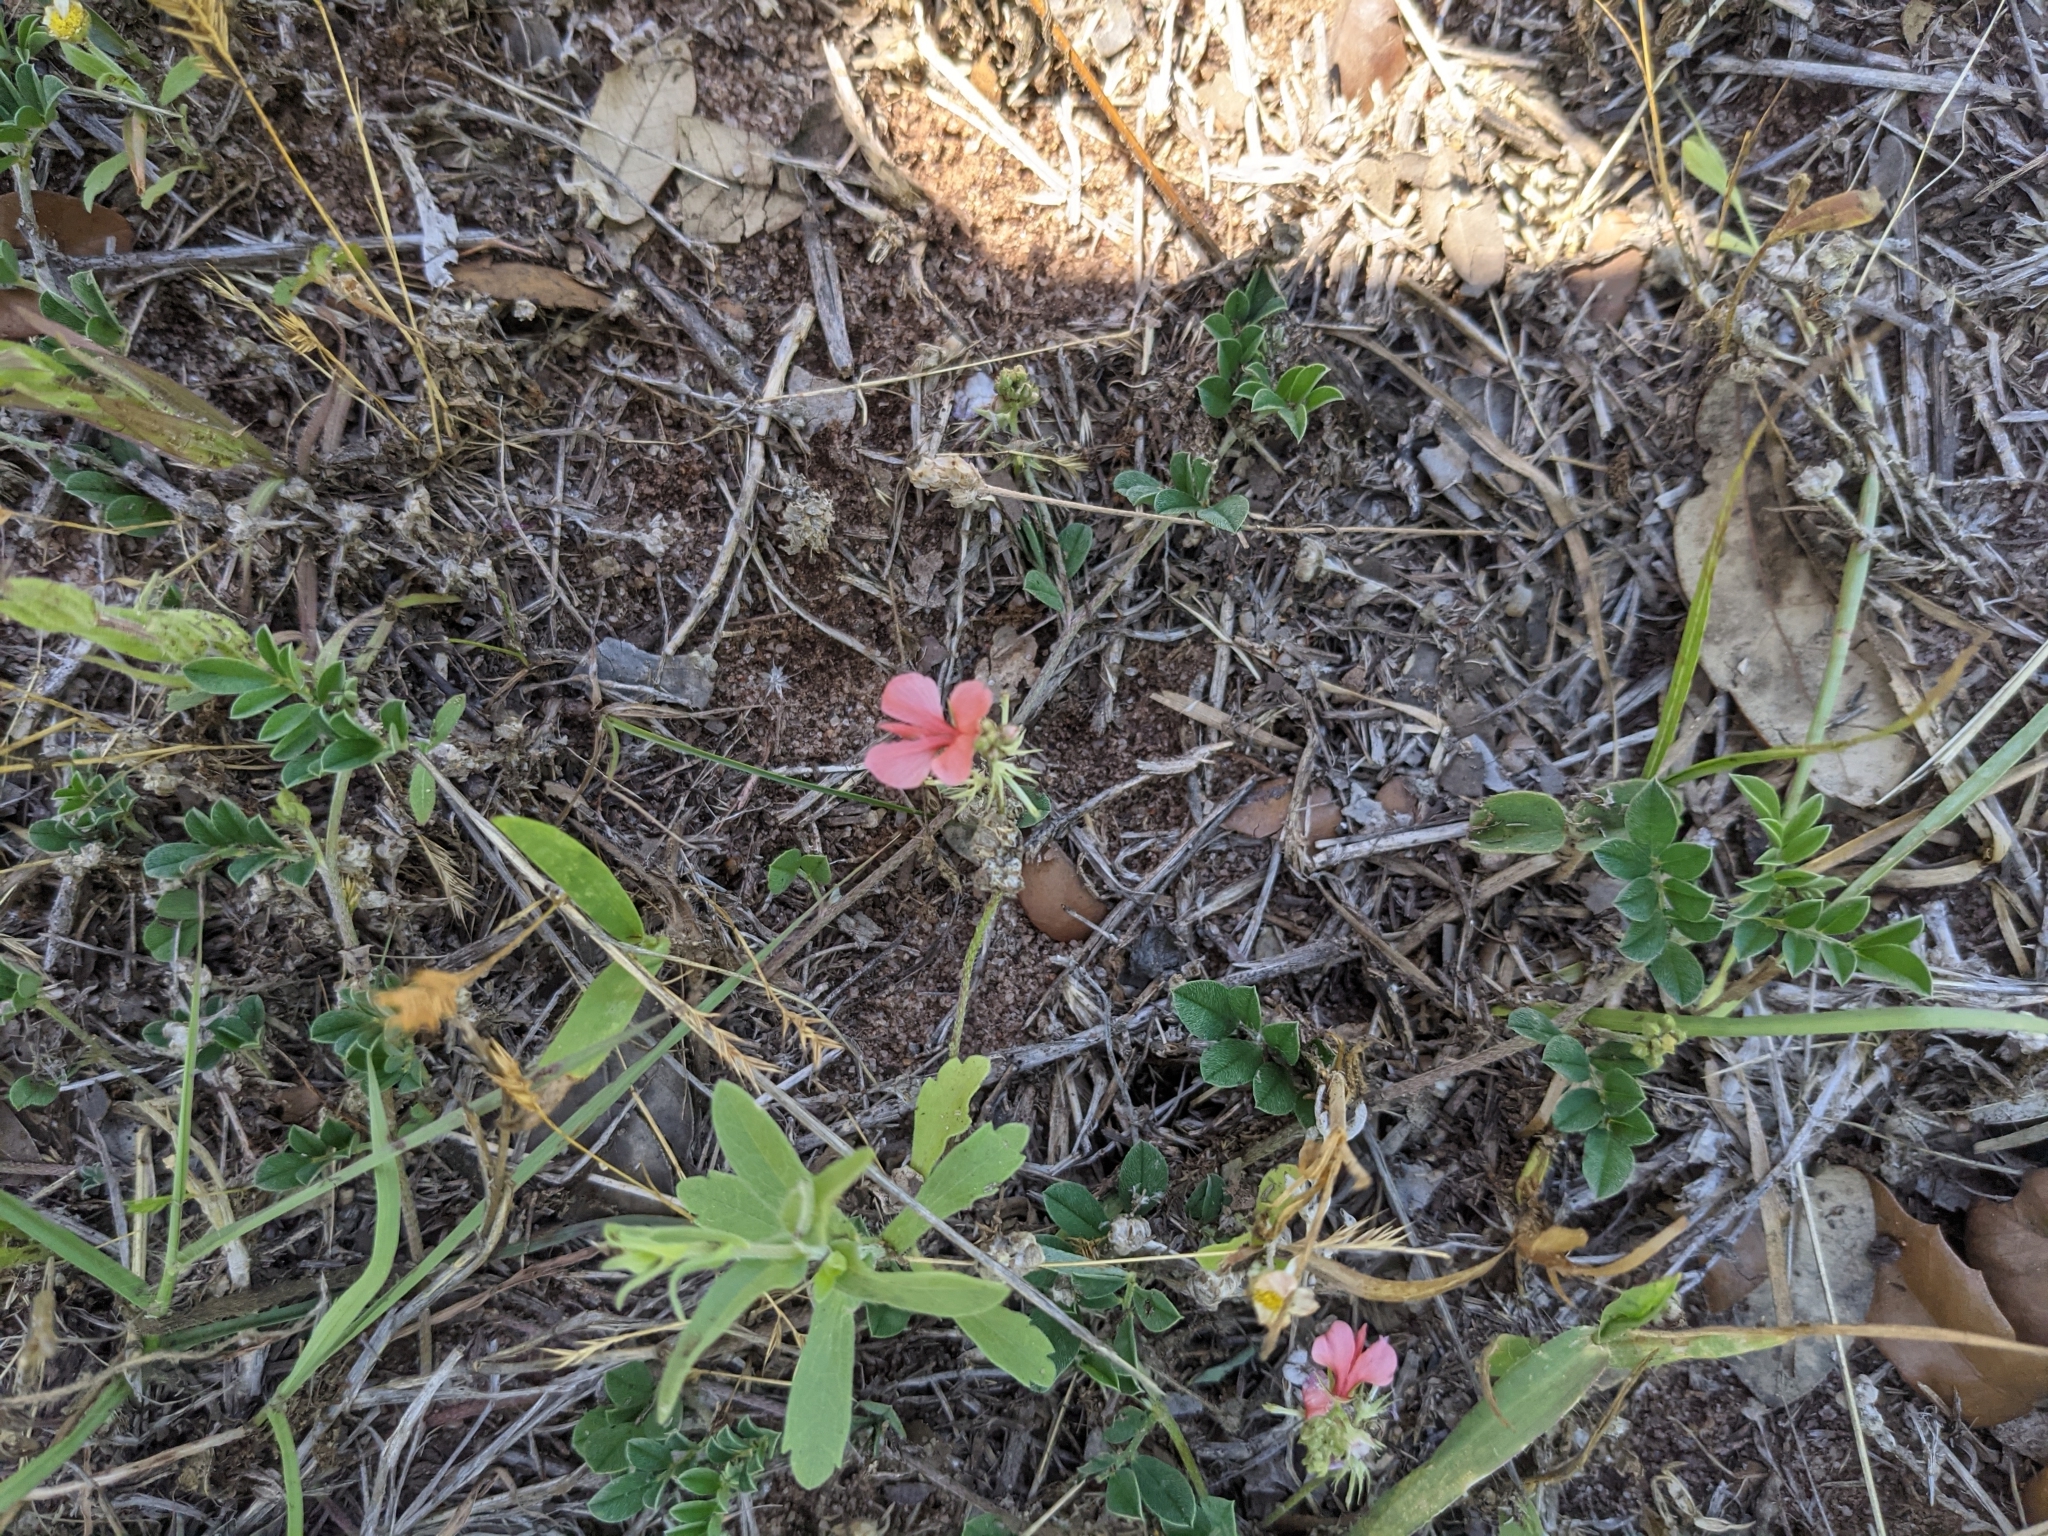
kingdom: Plantae
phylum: Tracheophyta
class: Magnoliopsida
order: Fabales
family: Fabaceae
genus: Indigofera
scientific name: Indigofera miniata
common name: Coast indigo
